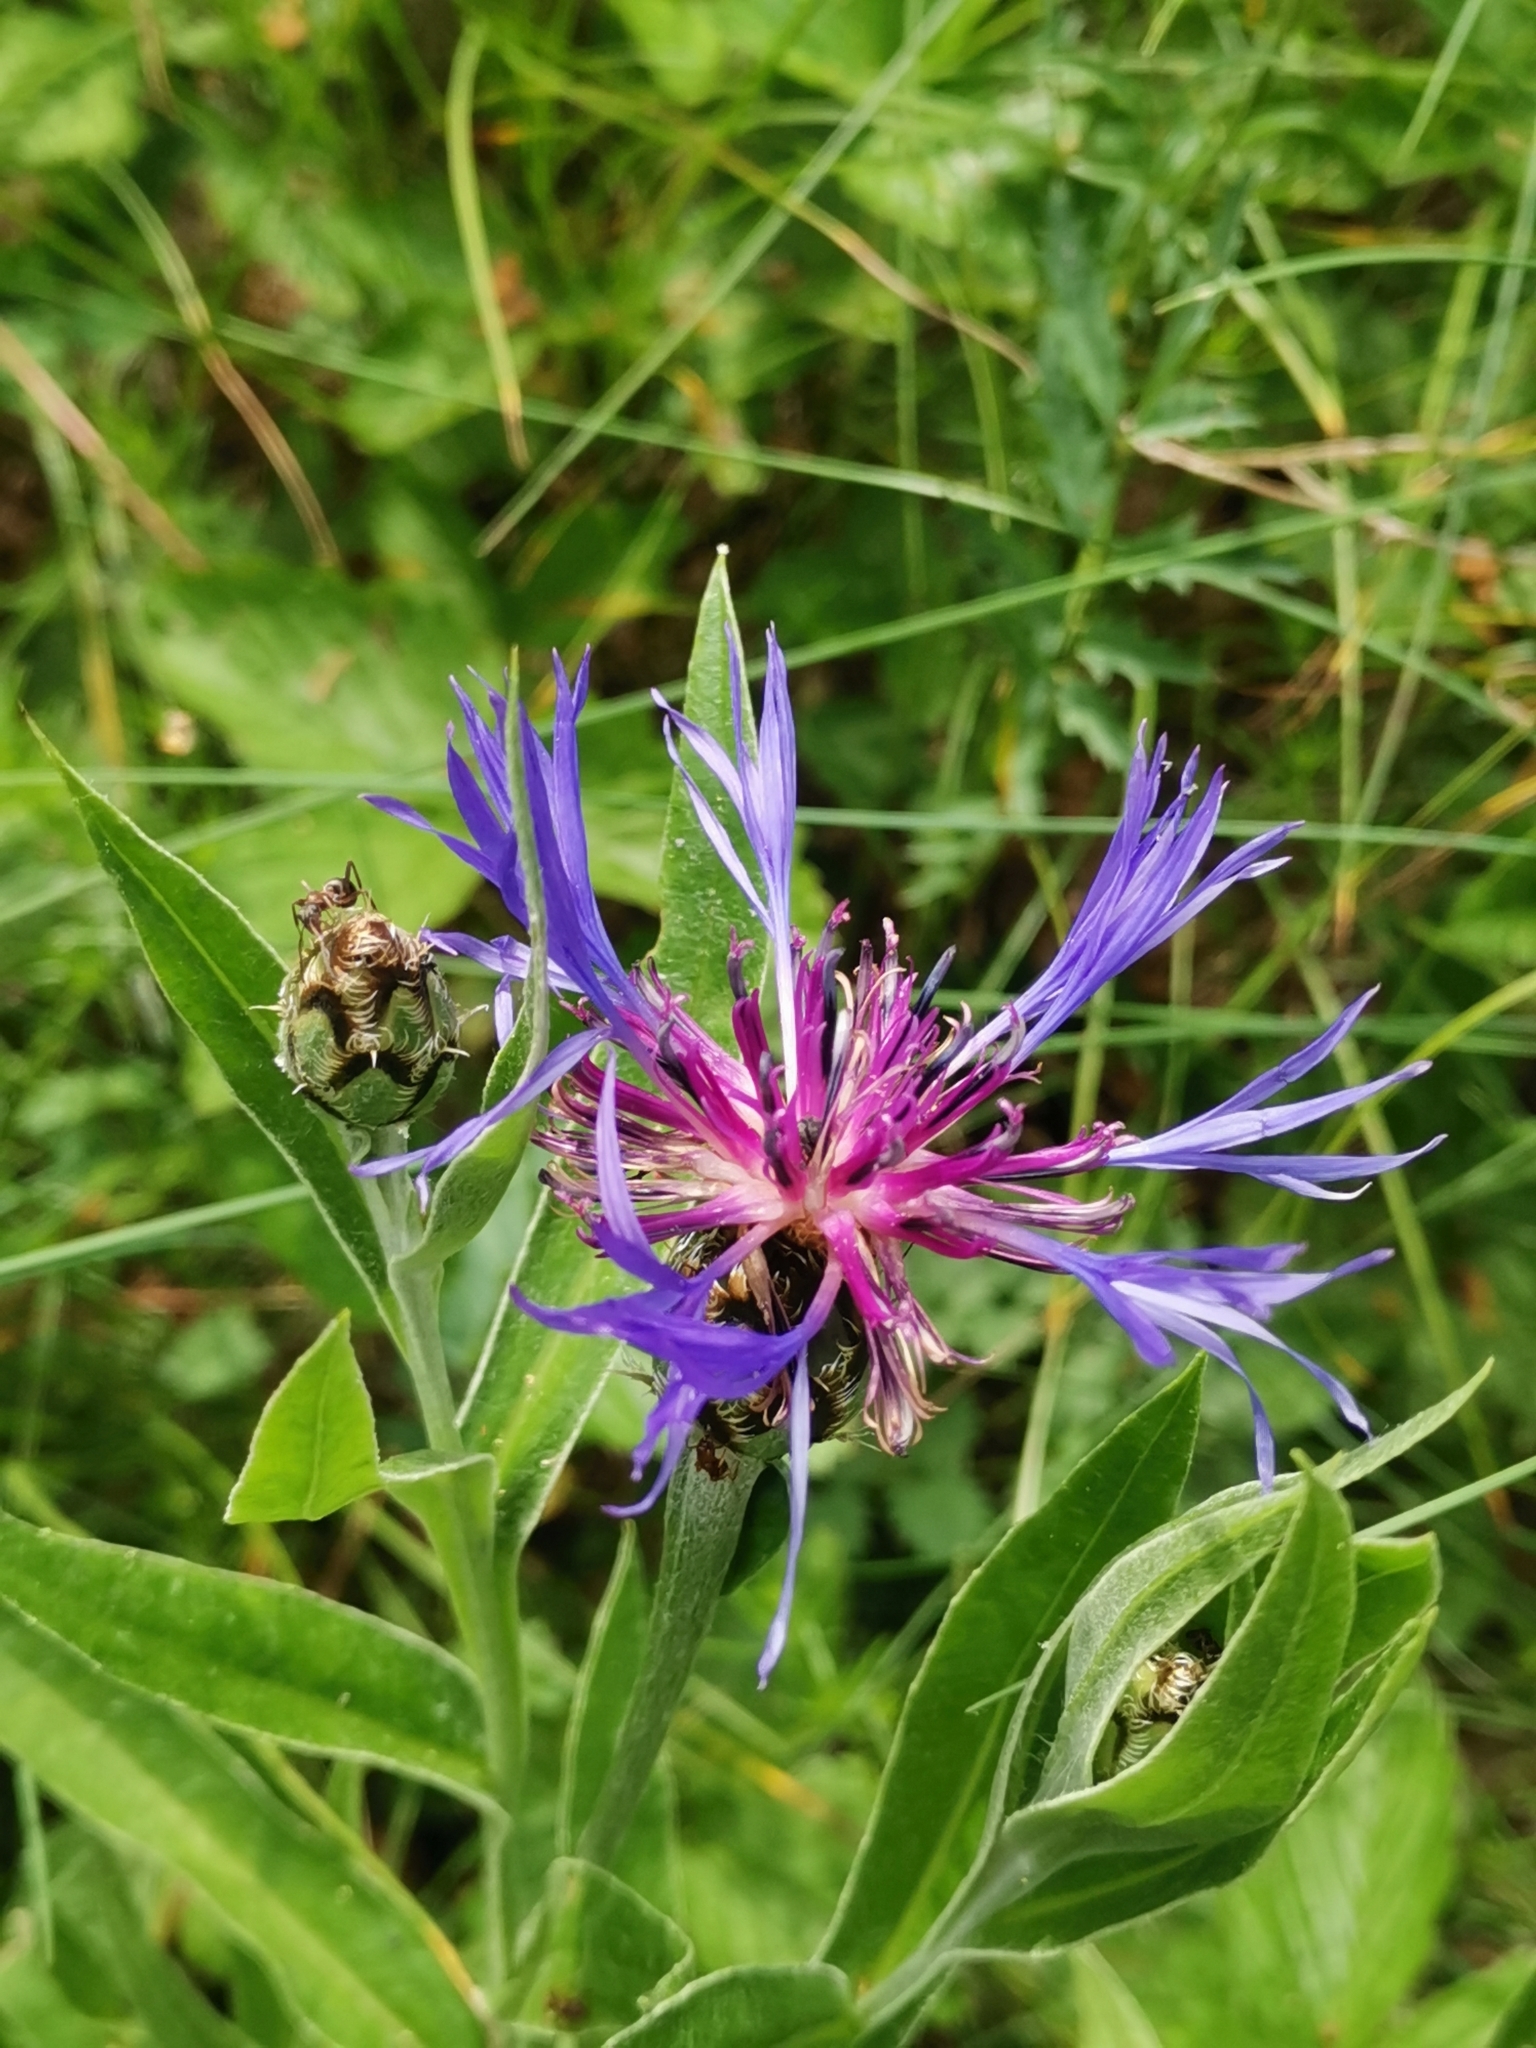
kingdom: Plantae
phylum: Tracheophyta
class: Magnoliopsida
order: Asterales
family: Asteraceae
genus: Centaurea
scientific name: Centaurea triumfettii
